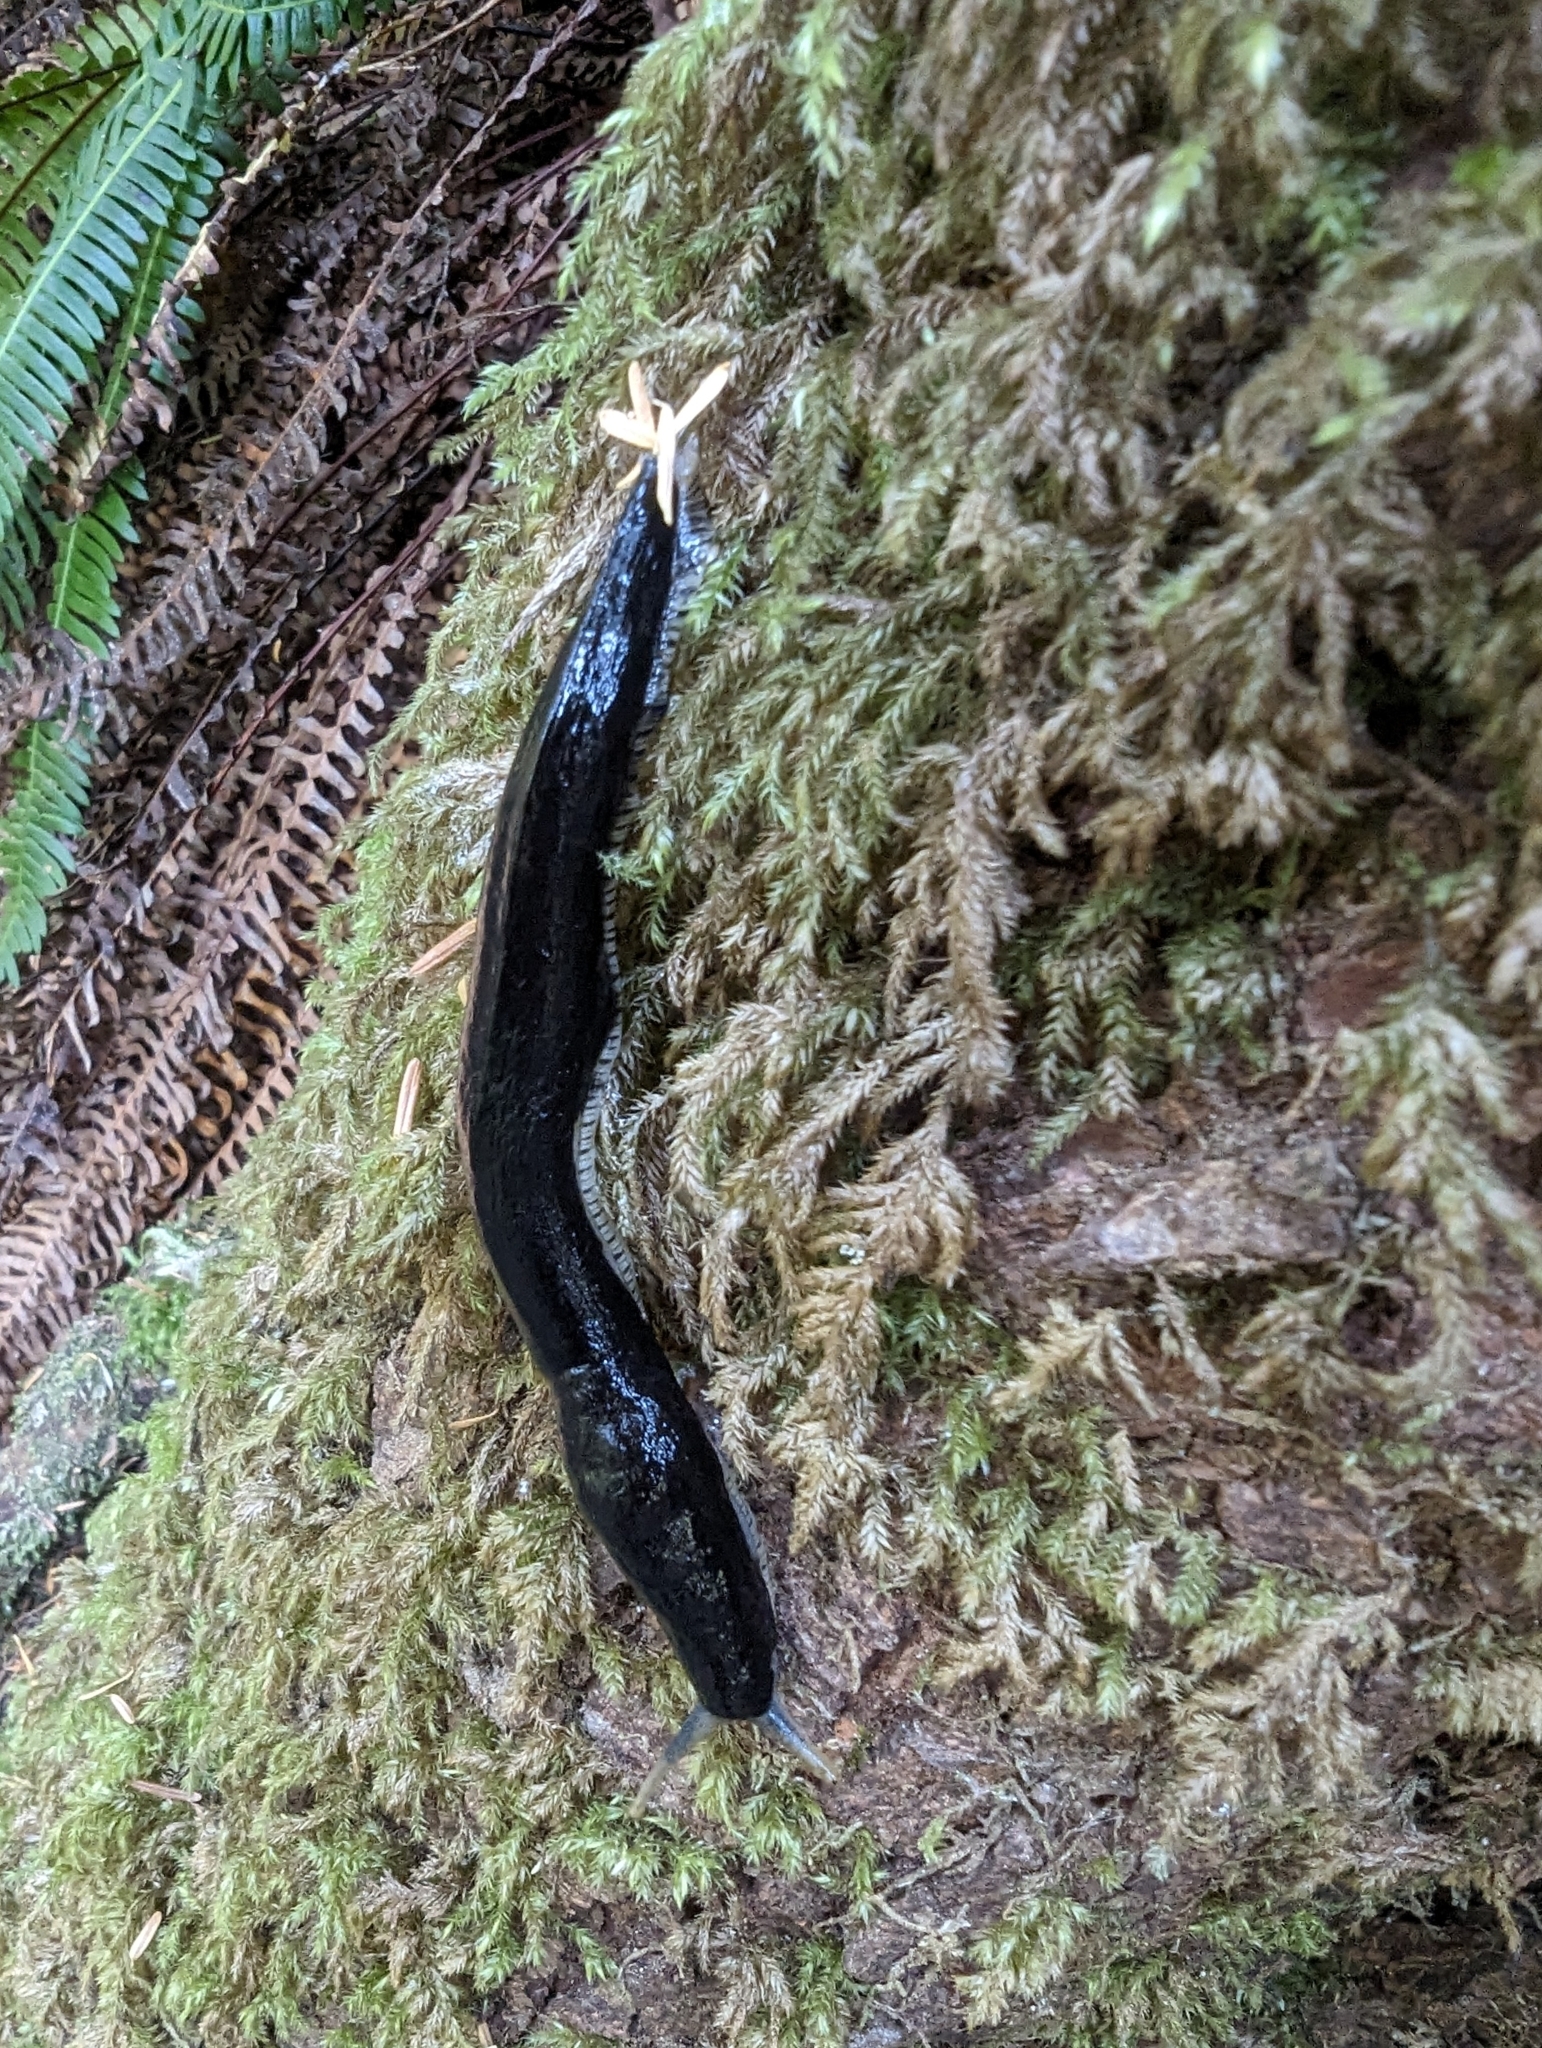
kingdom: Animalia
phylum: Mollusca
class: Gastropoda
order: Stylommatophora
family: Ariolimacidae
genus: Ariolimax
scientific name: Ariolimax columbianus
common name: Pacific banana slug
